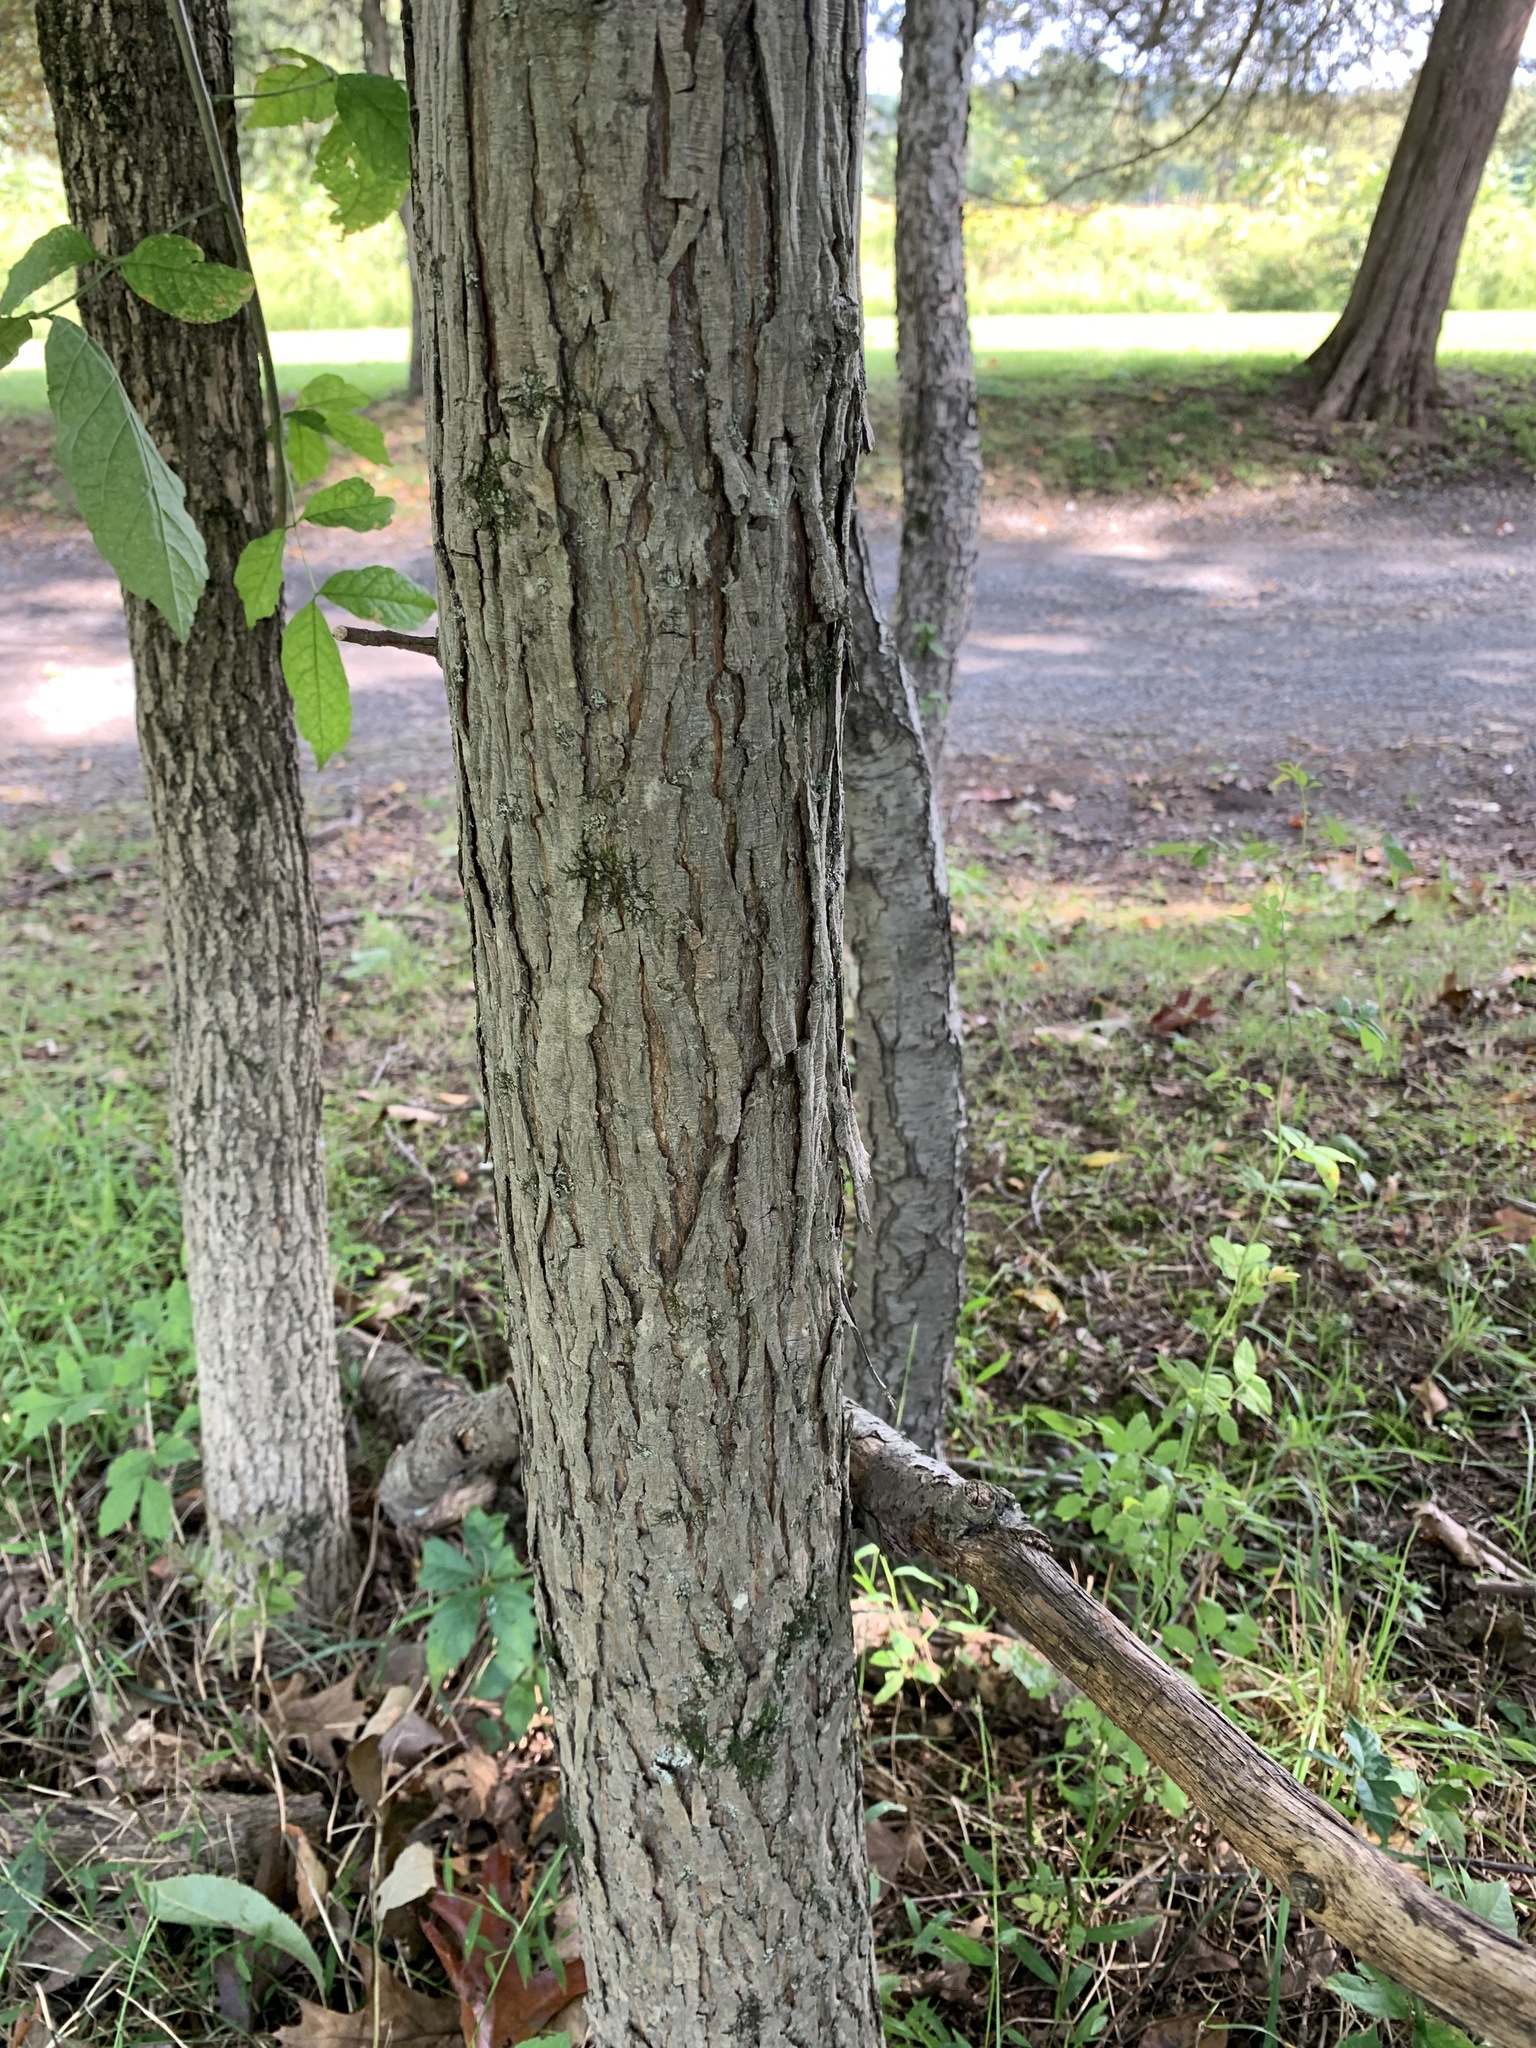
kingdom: Plantae
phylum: Tracheophyta
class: Magnoliopsida
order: Fagales
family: Juglandaceae
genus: Carya
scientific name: Carya ovata
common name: Shagbark hickory
